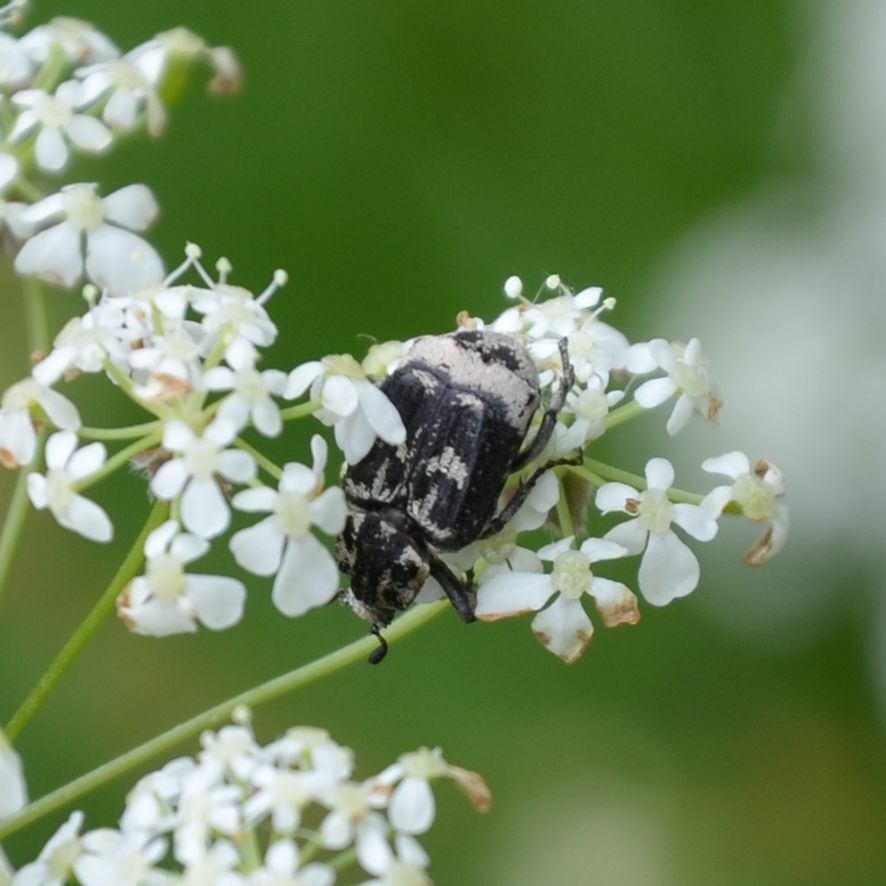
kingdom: Animalia
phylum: Arthropoda
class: Insecta
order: Coleoptera
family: Scarabaeidae
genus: Valgus
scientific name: Valgus hemipterus
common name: Bug flower chafer
